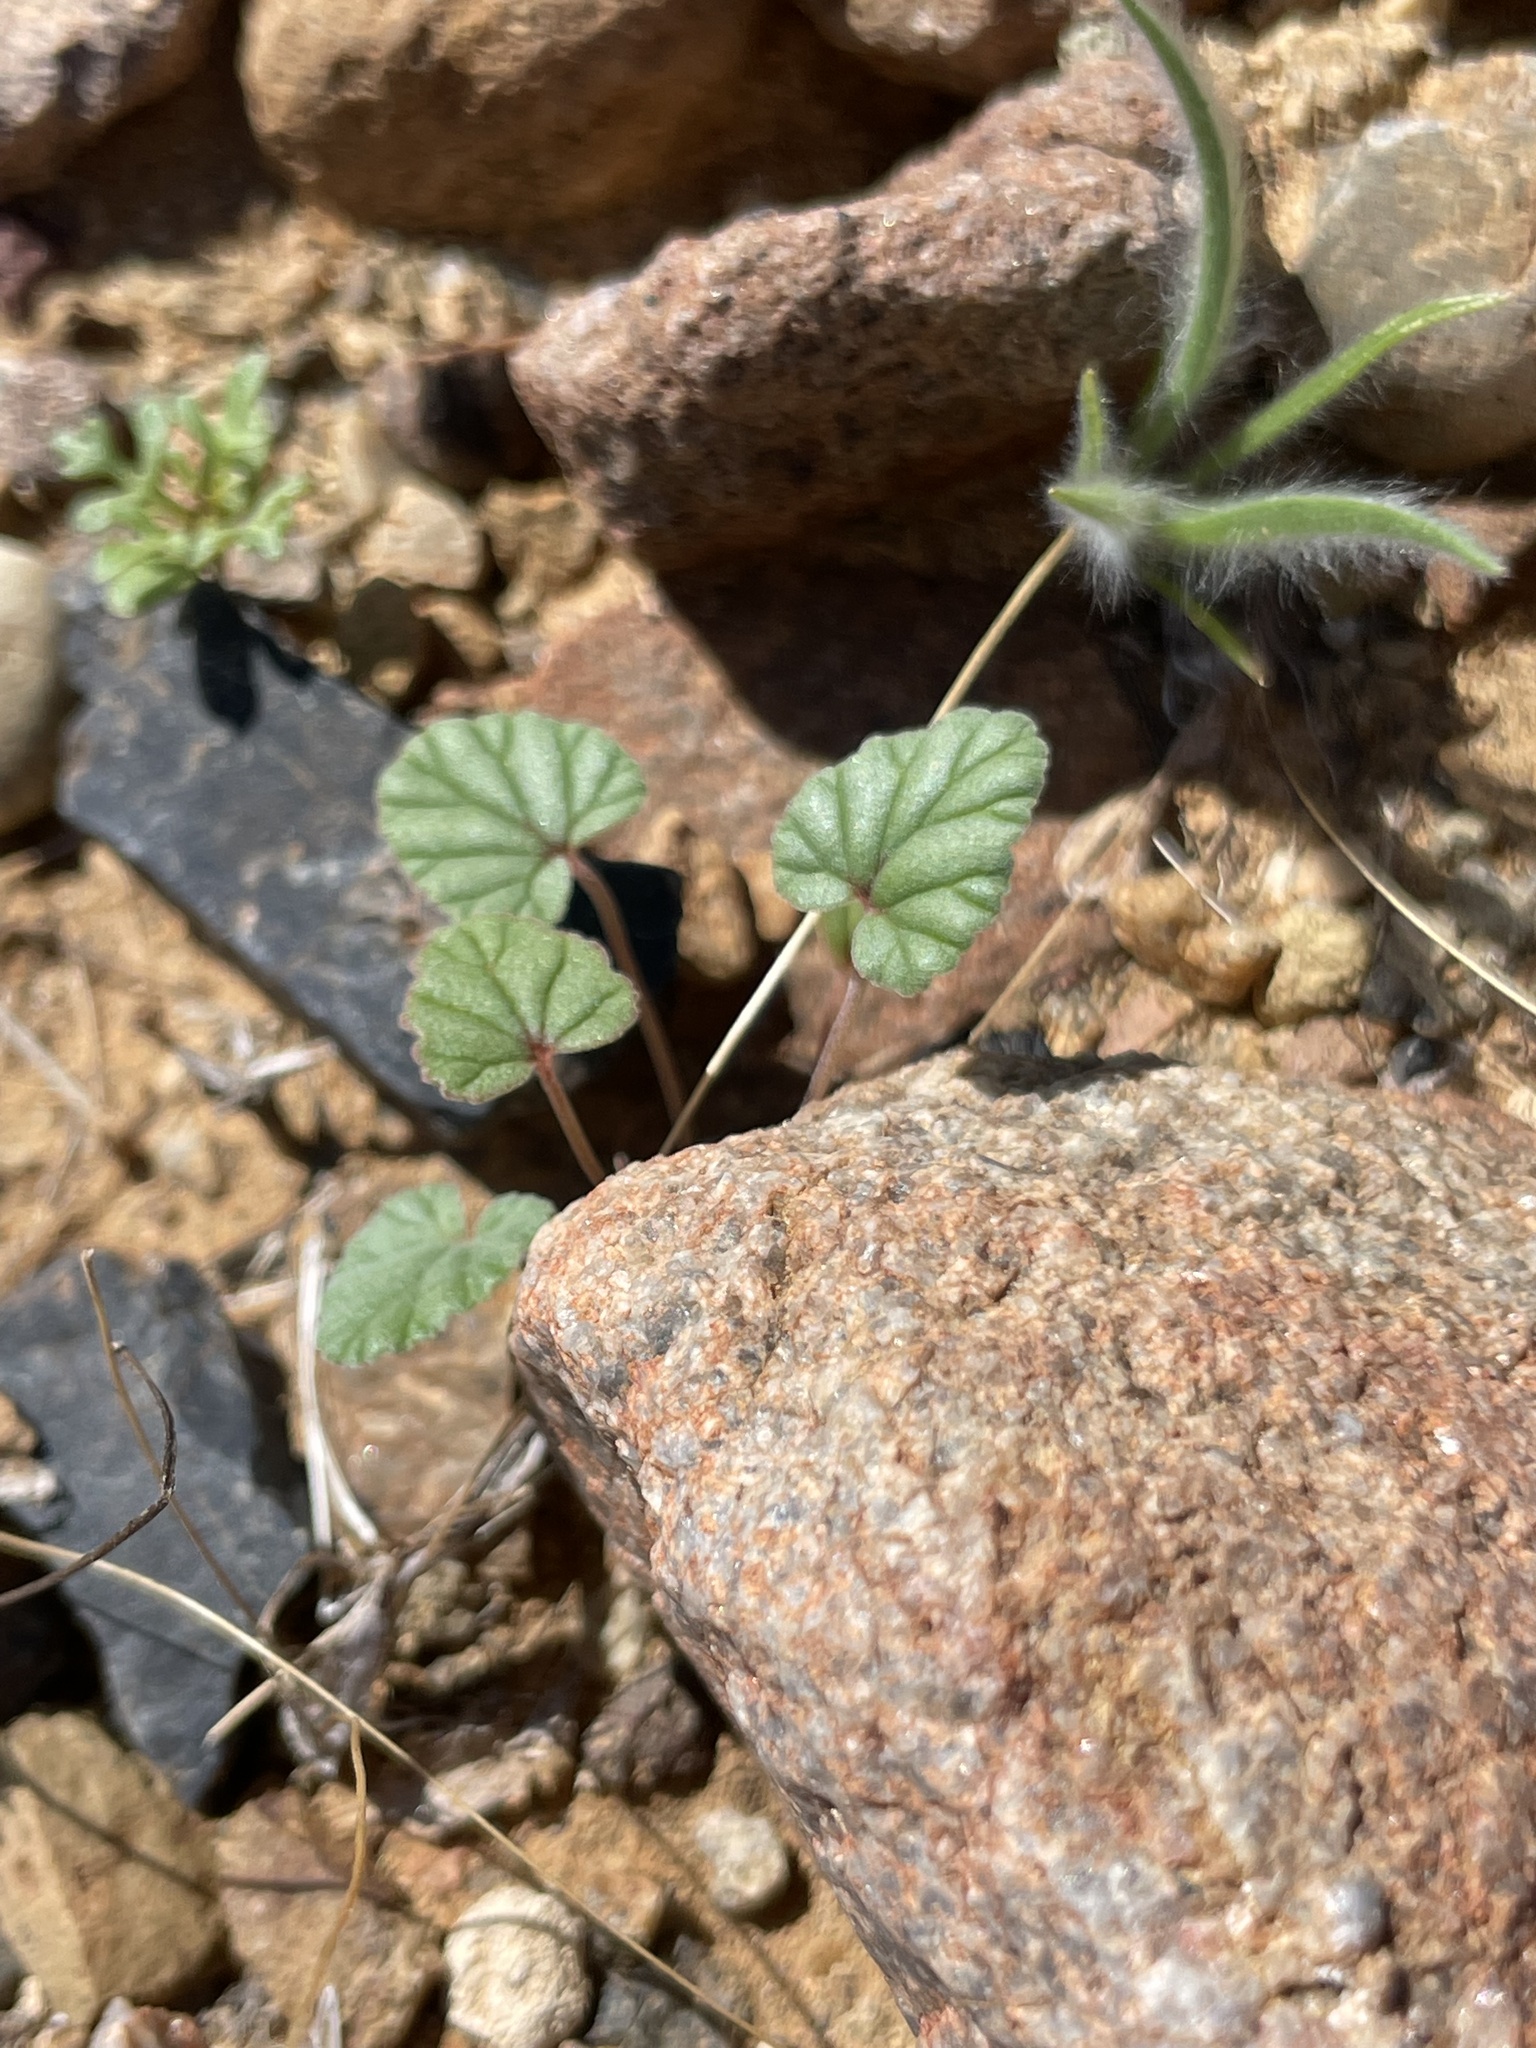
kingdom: Plantae
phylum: Tracheophyta
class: Magnoliopsida
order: Geraniales
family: Geraniaceae
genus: Erodium
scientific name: Erodium texanum
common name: Texas stork's-bill
